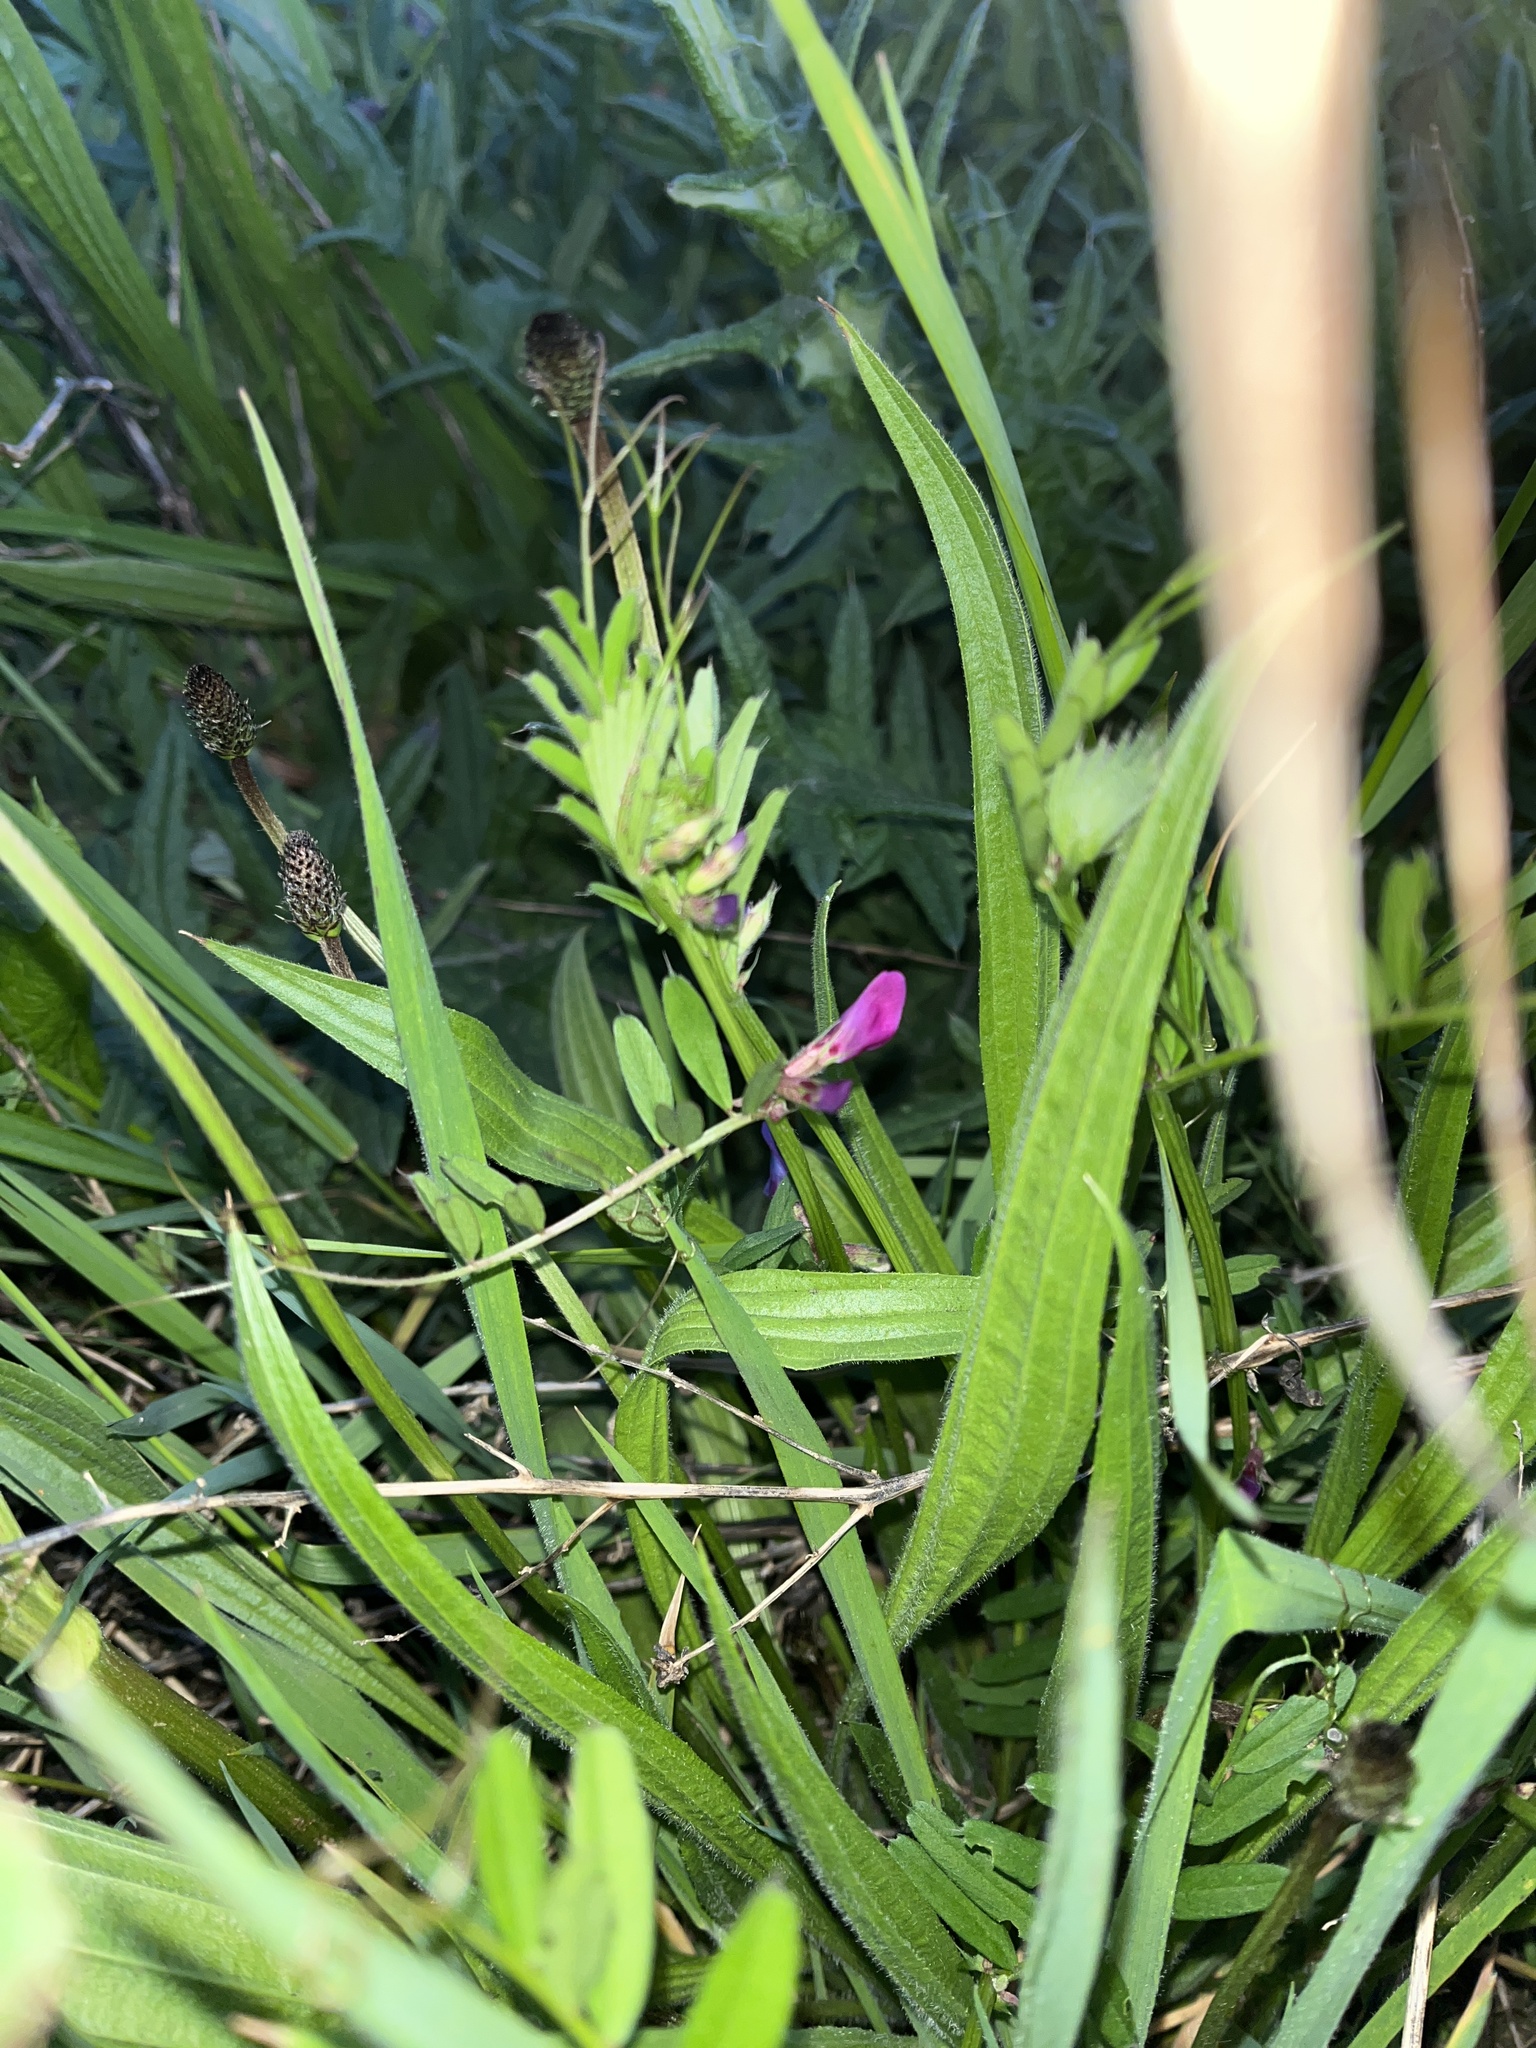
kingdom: Plantae
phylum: Tracheophyta
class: Magnoliopsida
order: Fabales
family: Fabaceae
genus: Vicia
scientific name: Vicia sativa
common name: Garden vetch
